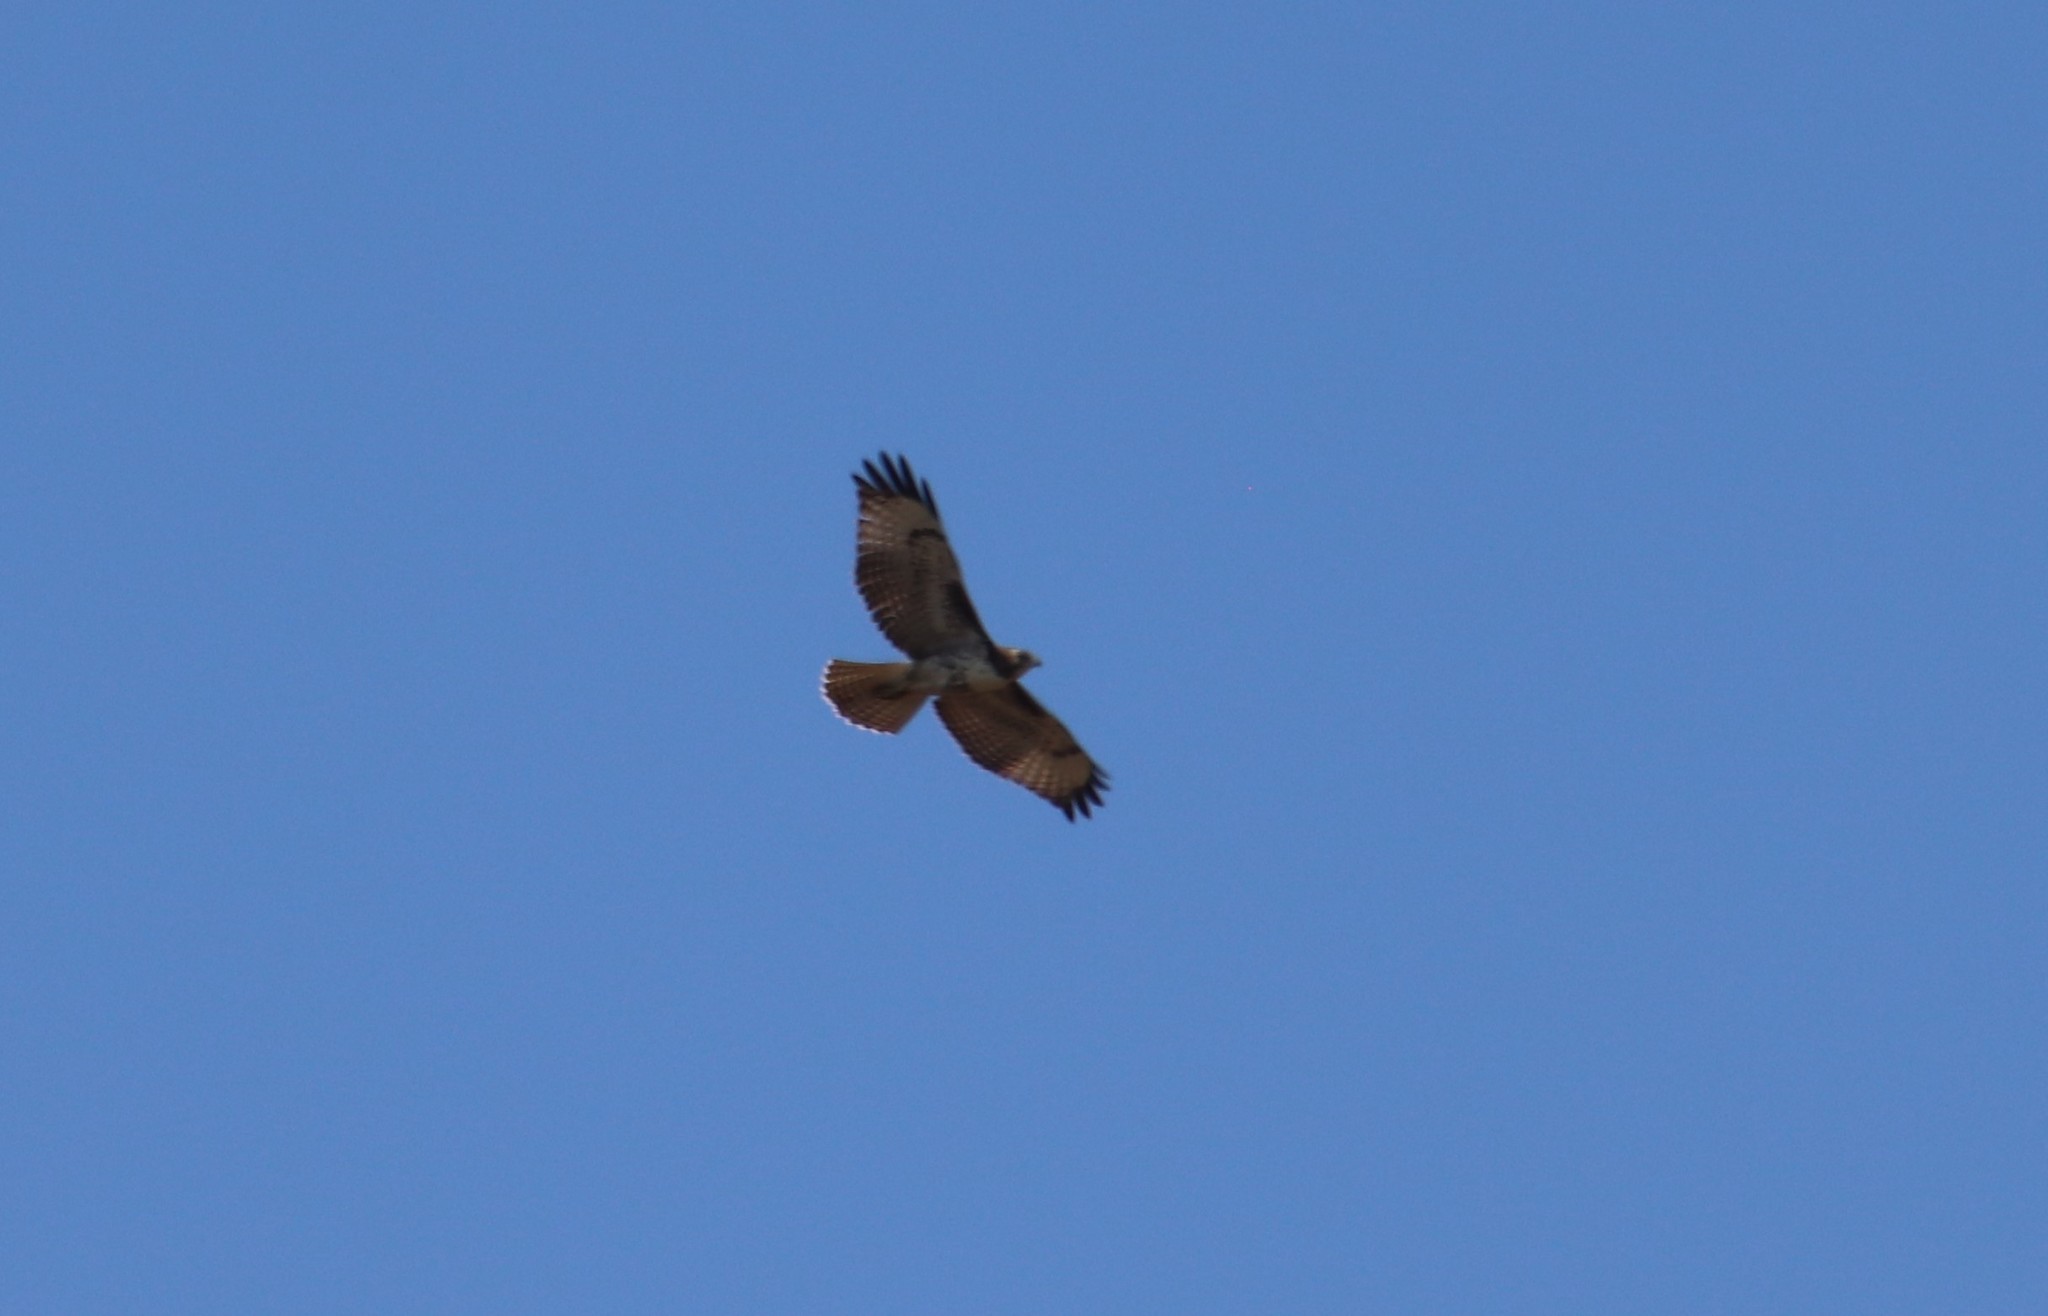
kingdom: Animalia
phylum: Chordata
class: Aves
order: Accipitriformes
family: Accipitridae
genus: Buteo
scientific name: Buteo jamaicensis
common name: Red-tailed hawk
